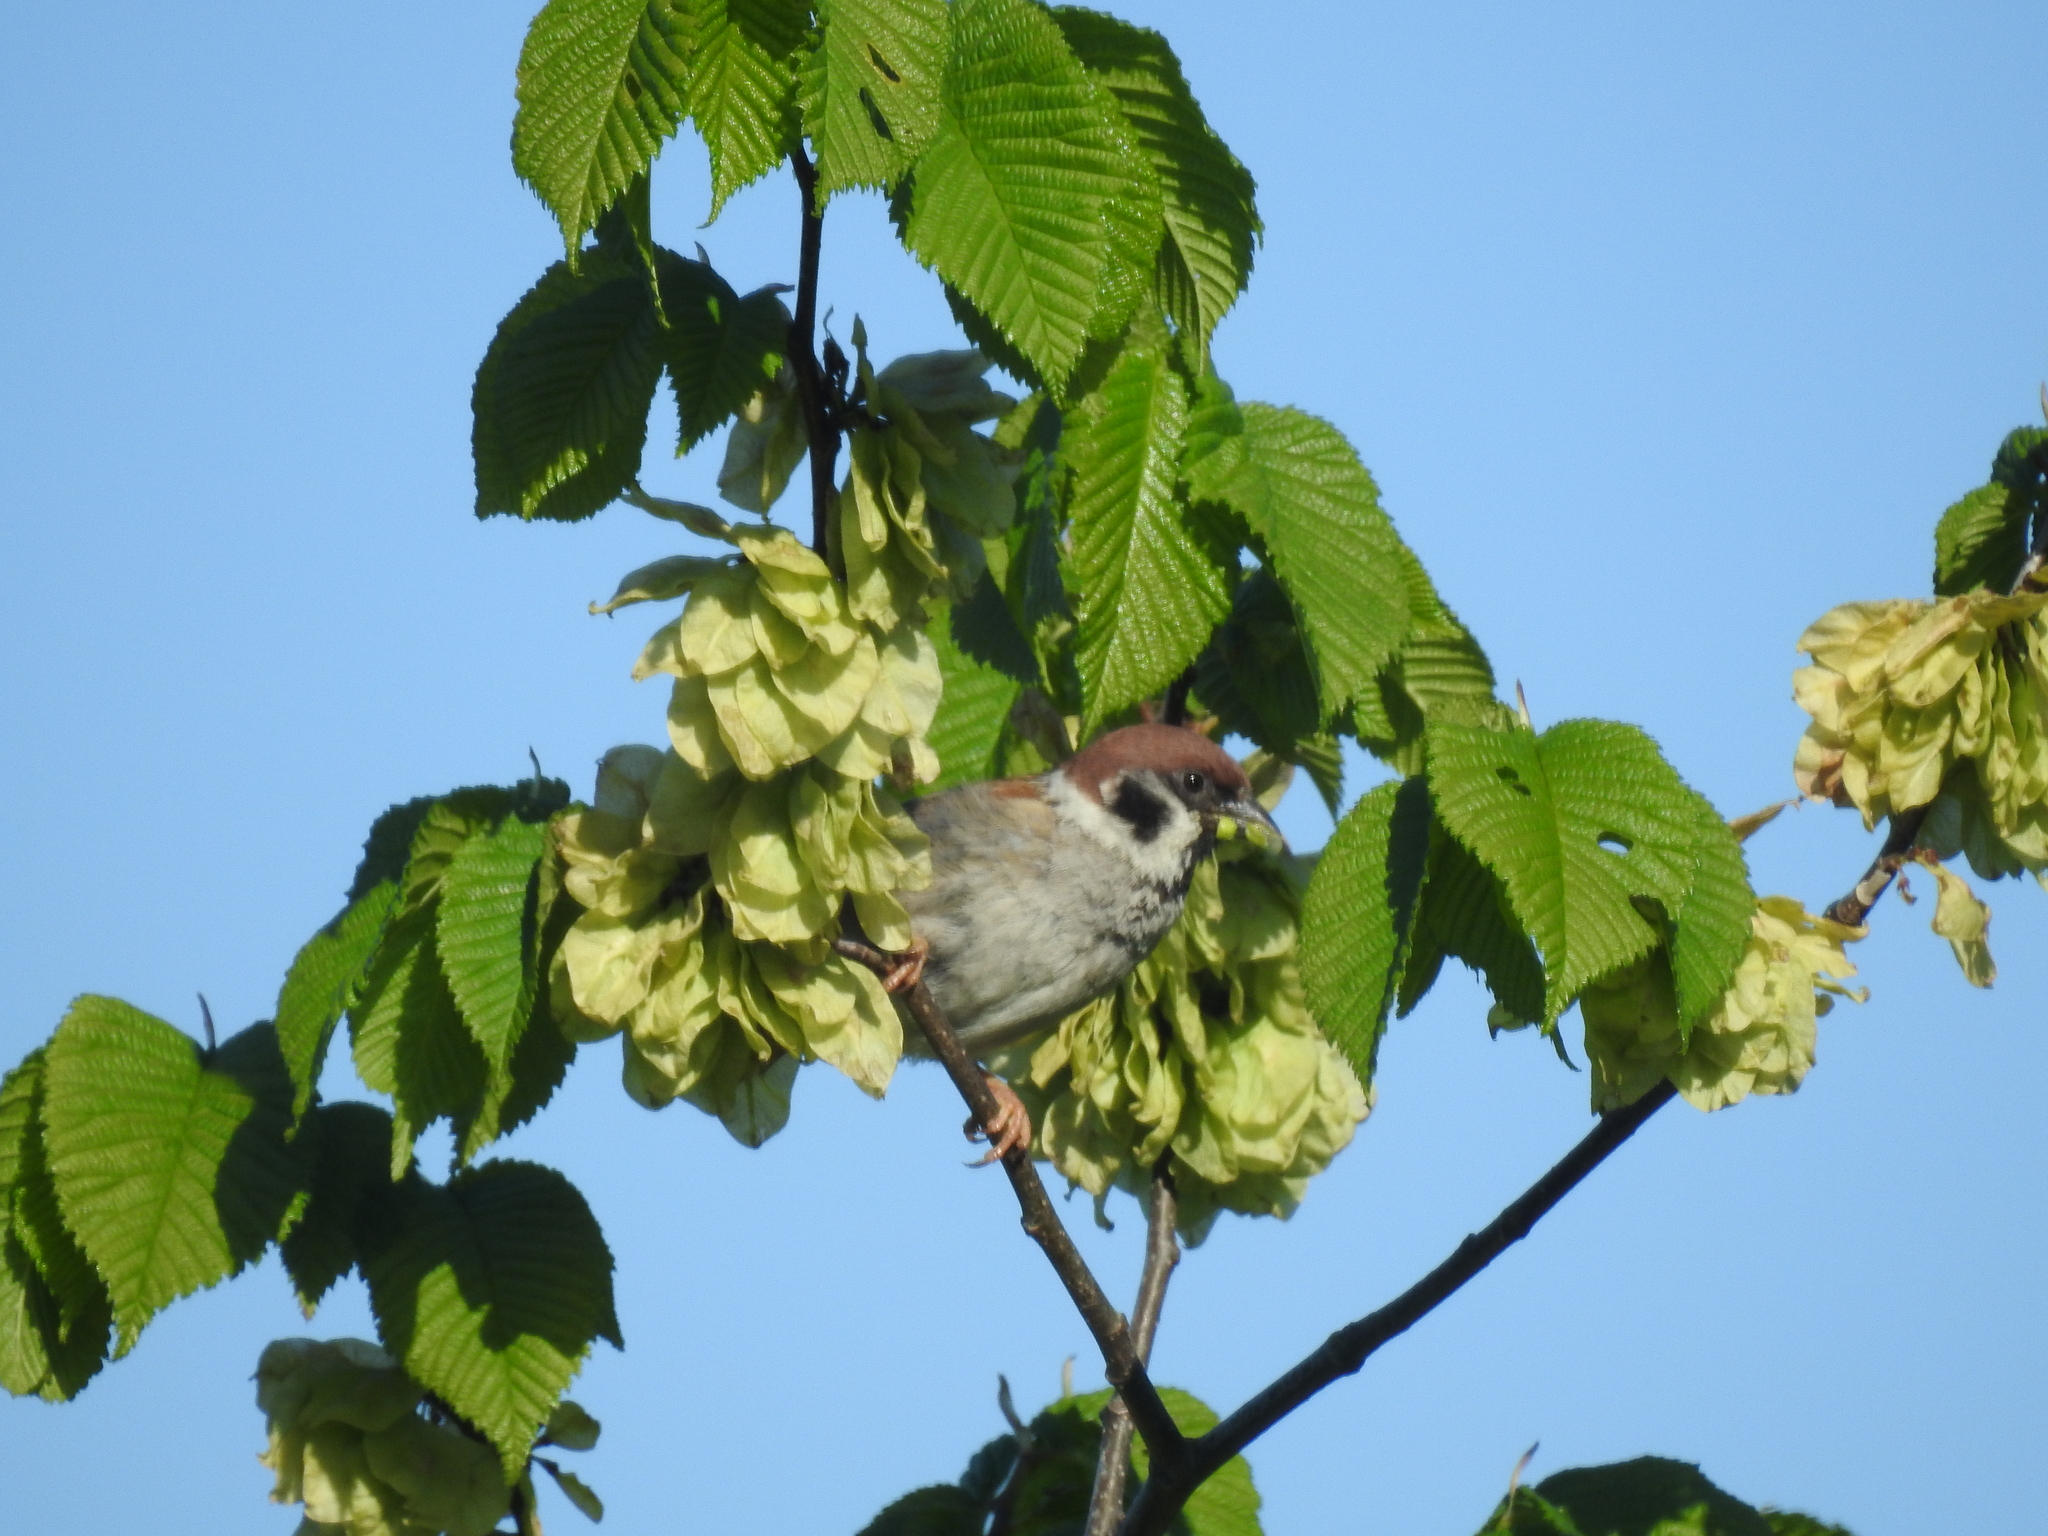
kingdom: Animalia
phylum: Chordata
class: Aves
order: Passeriformes
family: Passeridae
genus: Passer
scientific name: Passer montanus
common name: Eurasian tree sparrow
